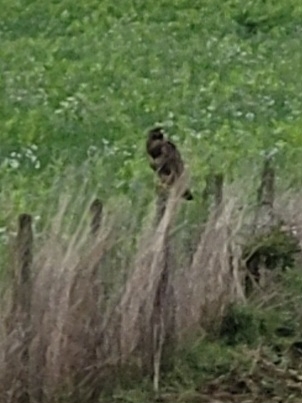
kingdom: Animalia
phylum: Chordata
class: Aves
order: Accipitriformes
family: Accipitridae
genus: Buteo
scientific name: Buteo buteo
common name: Common buzzard
